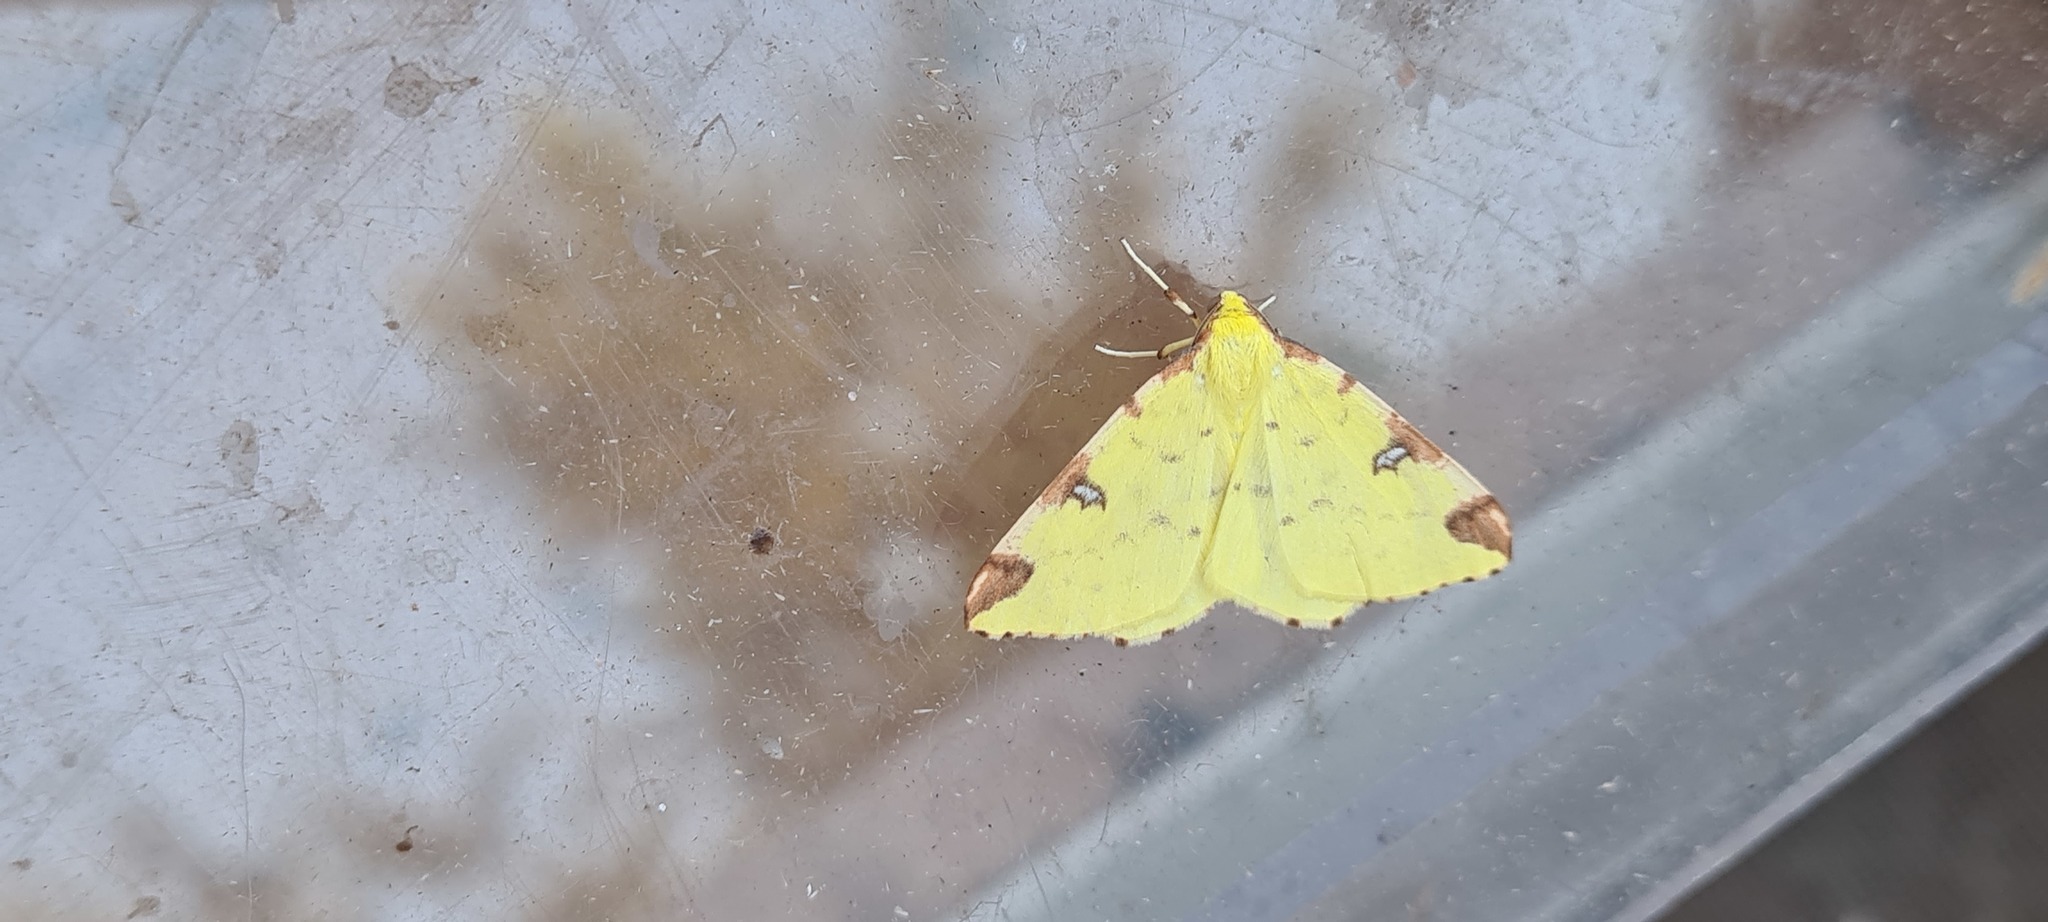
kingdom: Animalia
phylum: Arthropoda
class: Insecta
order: Lepidoptera
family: Geometridae
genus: Opisthograptis
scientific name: Opisthograptis luteolata
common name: Brimstone moth
